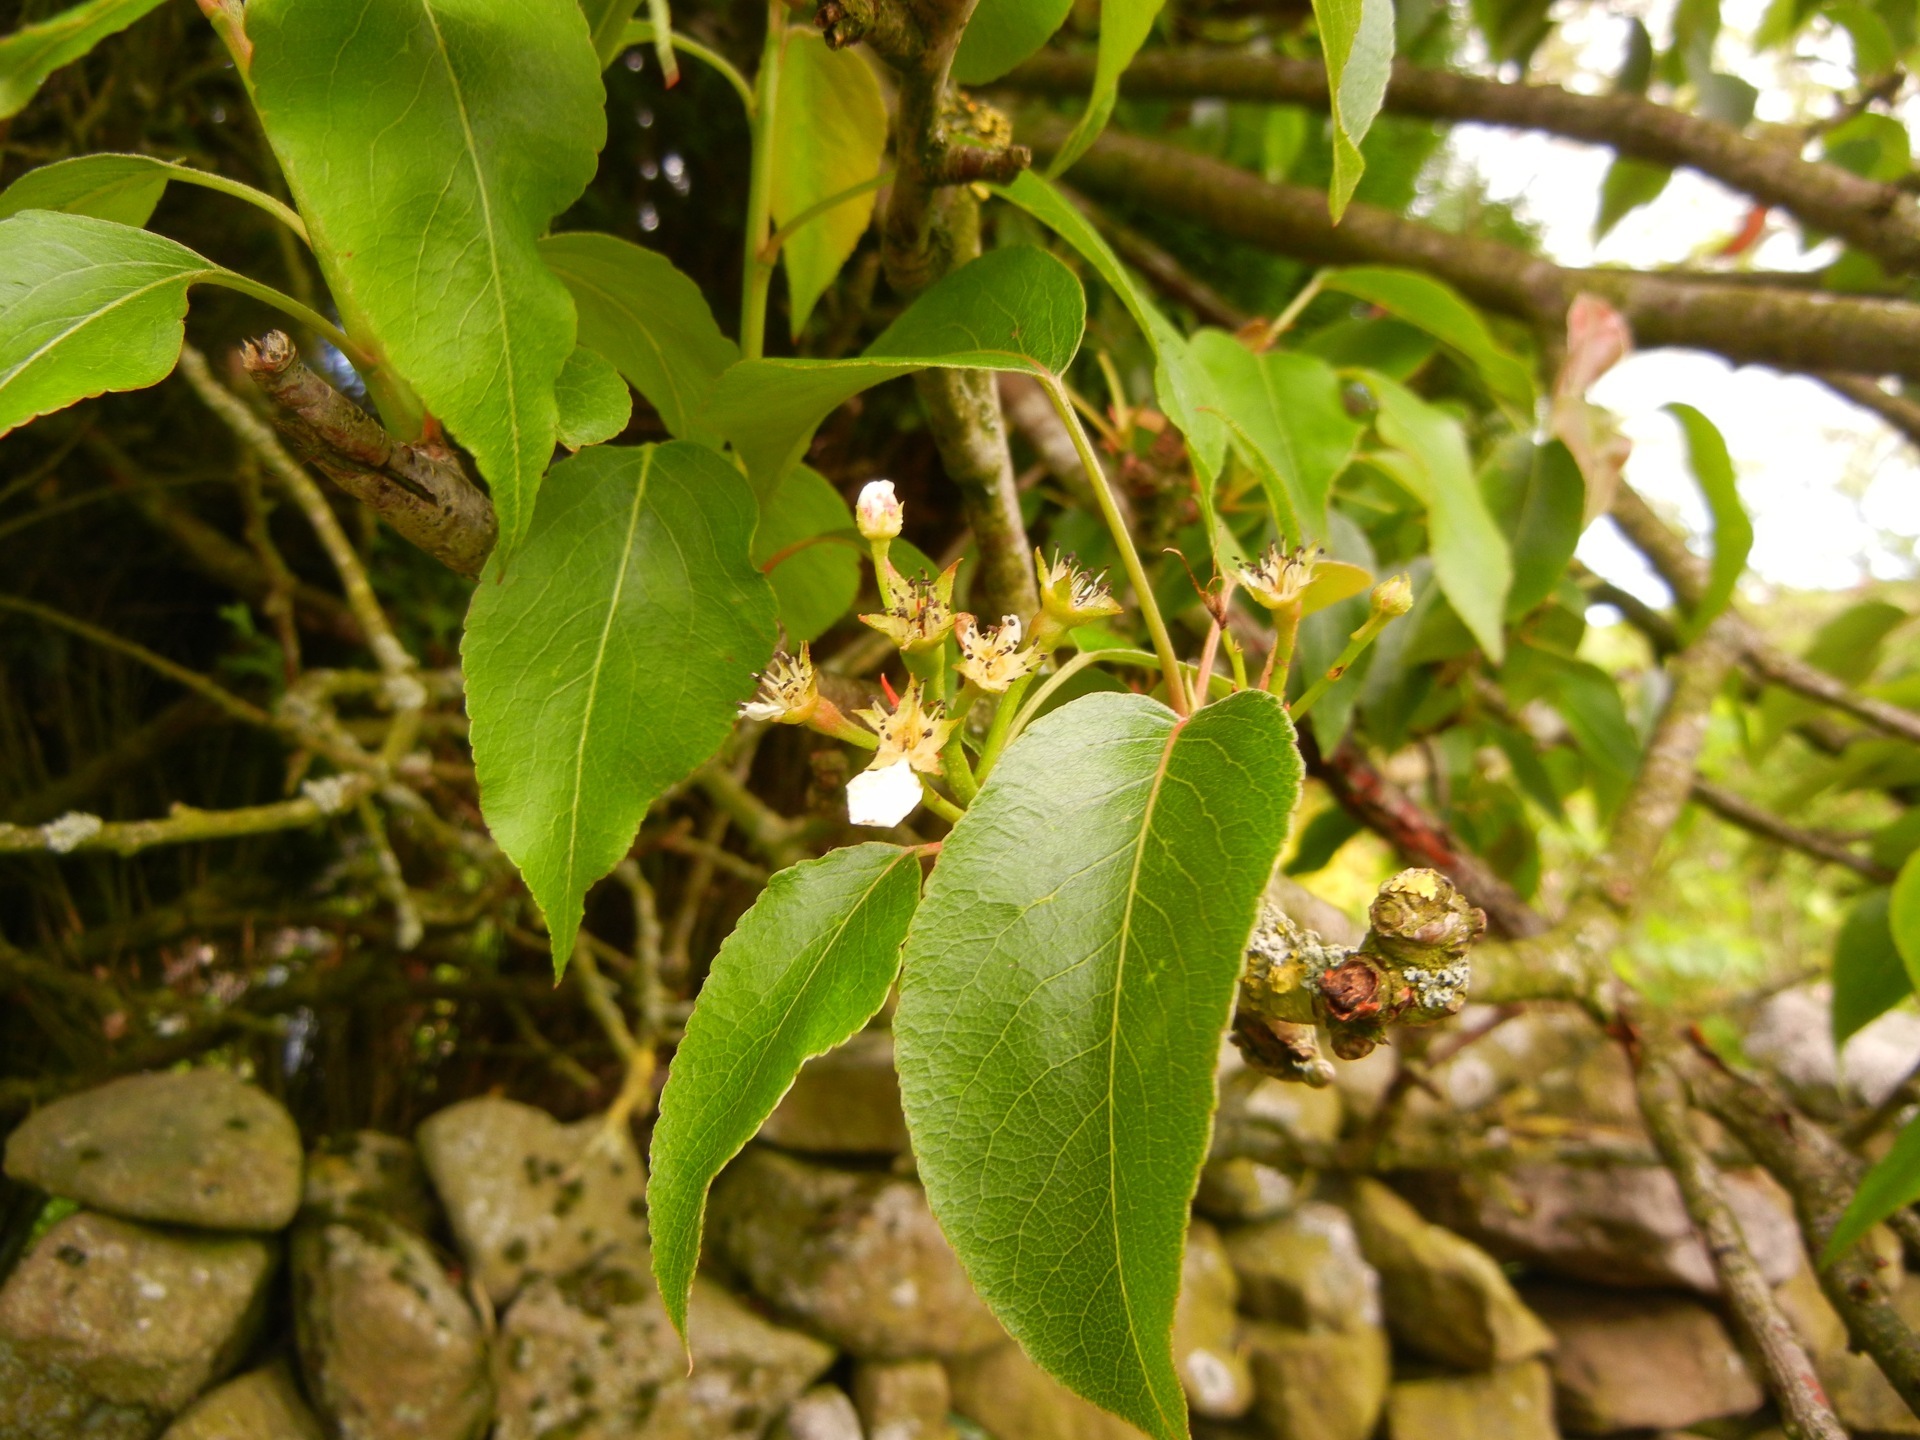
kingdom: Plantae
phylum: Tracheophyta
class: Magnoliopsida
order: Rosales
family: Rosaceae
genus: Pyrus
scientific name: Pyrus communis
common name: Pear
